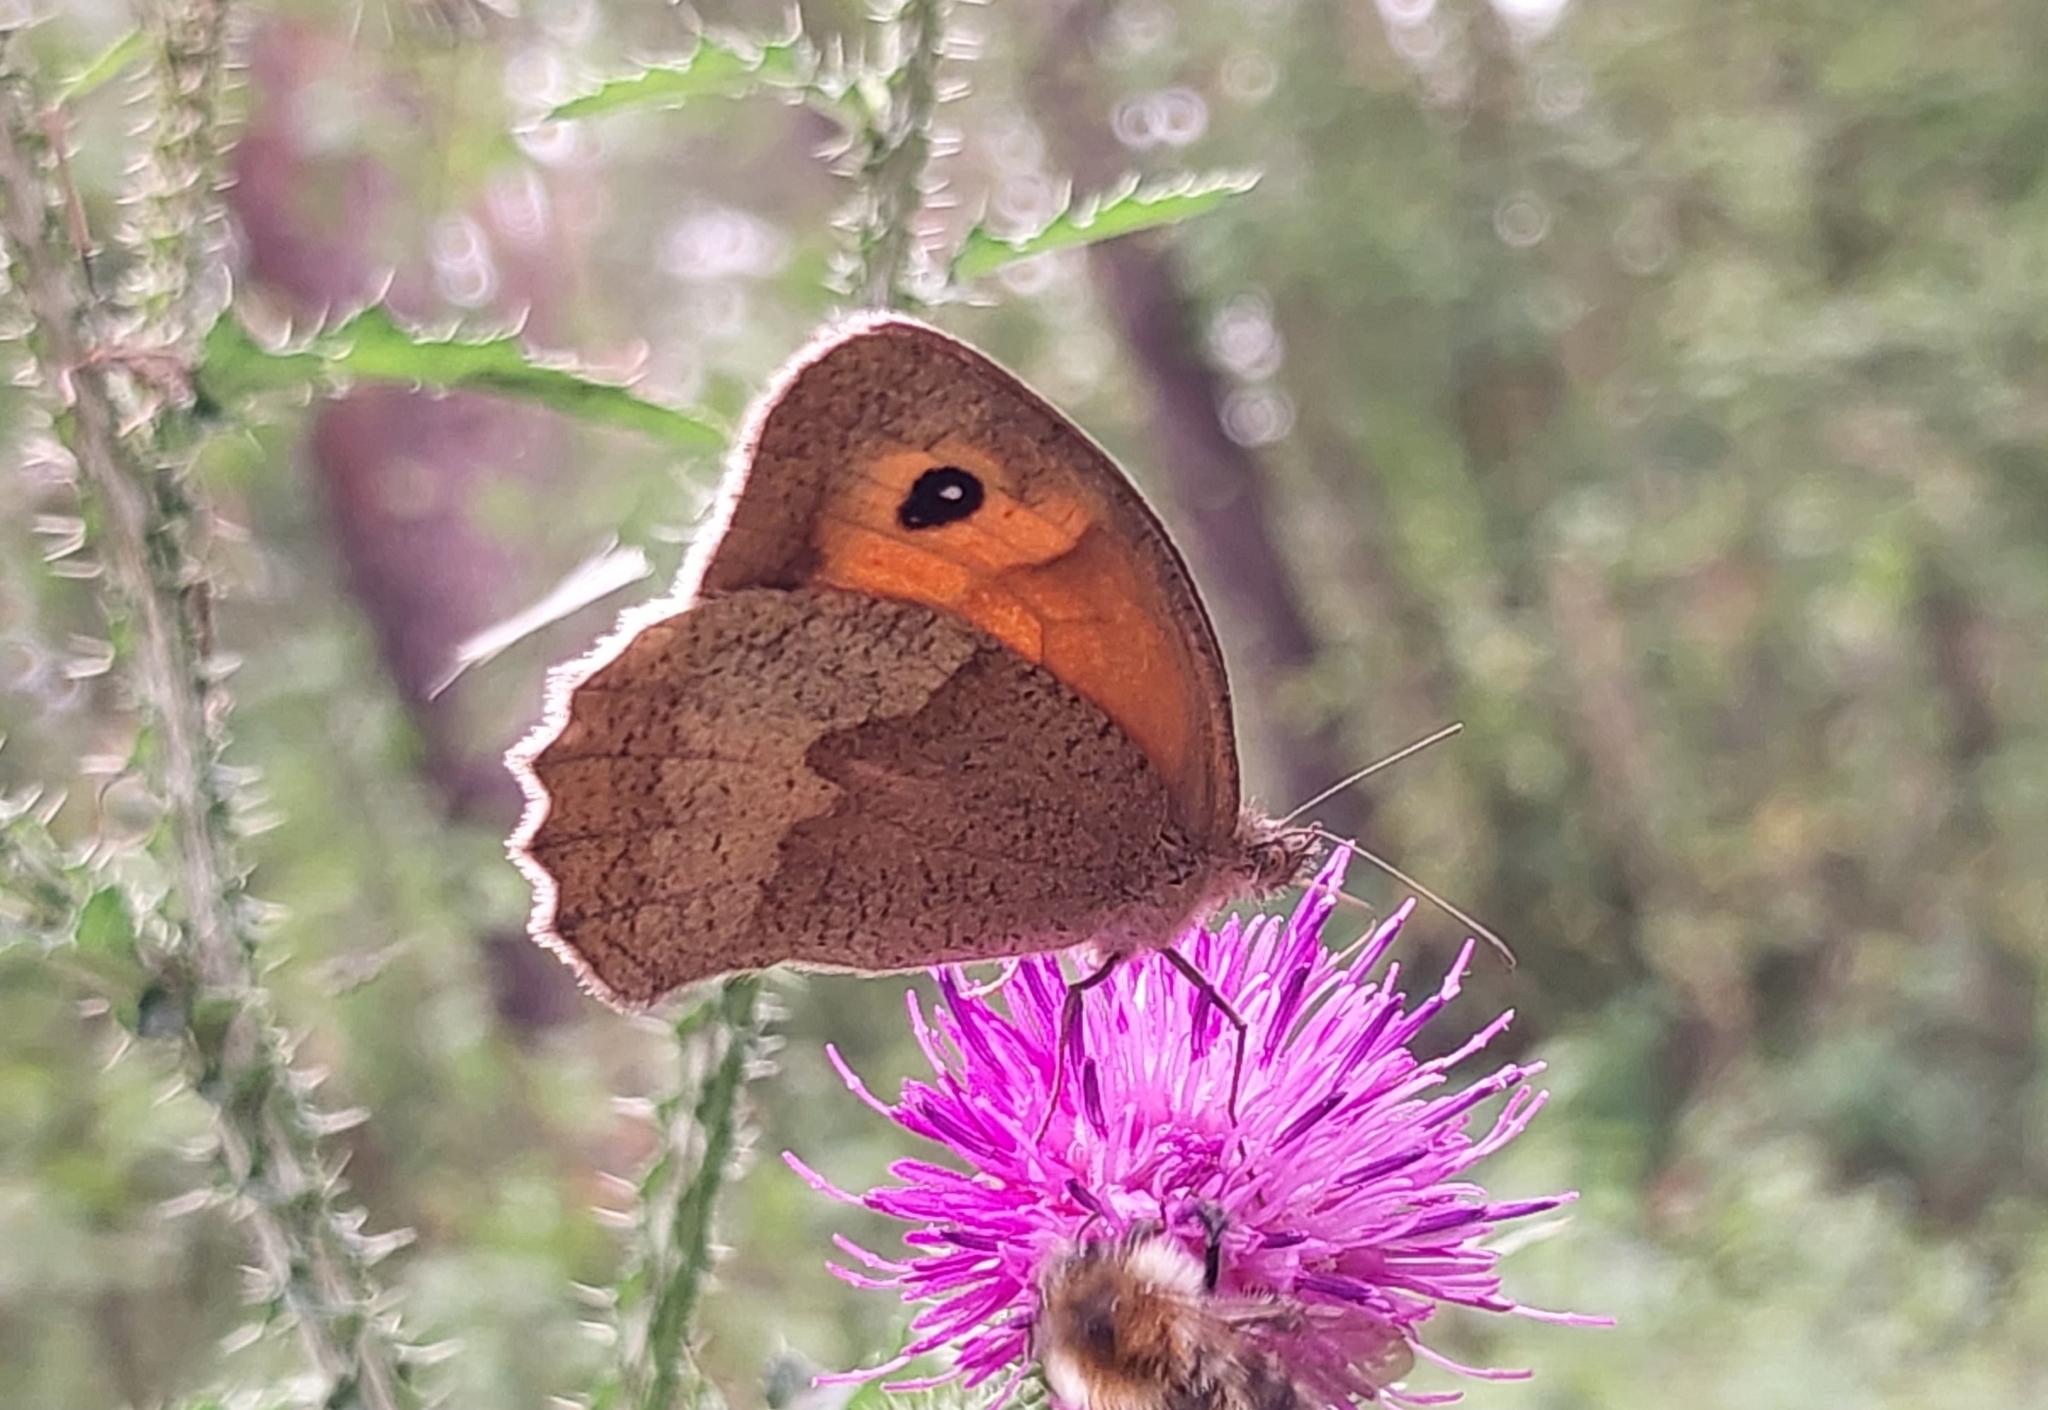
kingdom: Animalia
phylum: Arthropoda
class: Insecta
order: Lepidoptera
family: Nymphalidae
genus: Maniola
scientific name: Maniola jurtina
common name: Meadow brown
